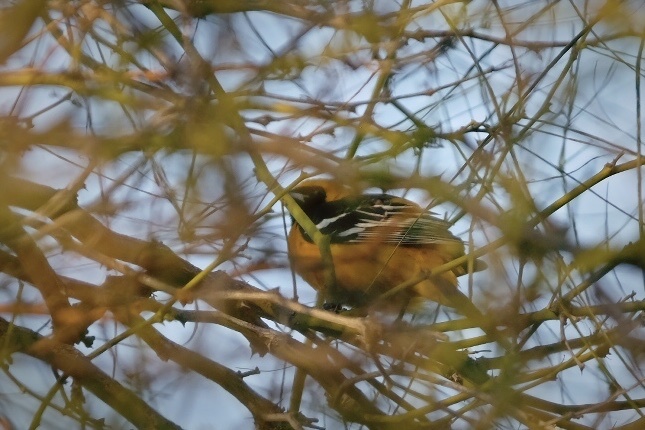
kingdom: Animalia
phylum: Chordata
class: Aves
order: Passeriformes
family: Icteridae
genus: Icterus
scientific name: Icterus cucullatus
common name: Hooded oriole
